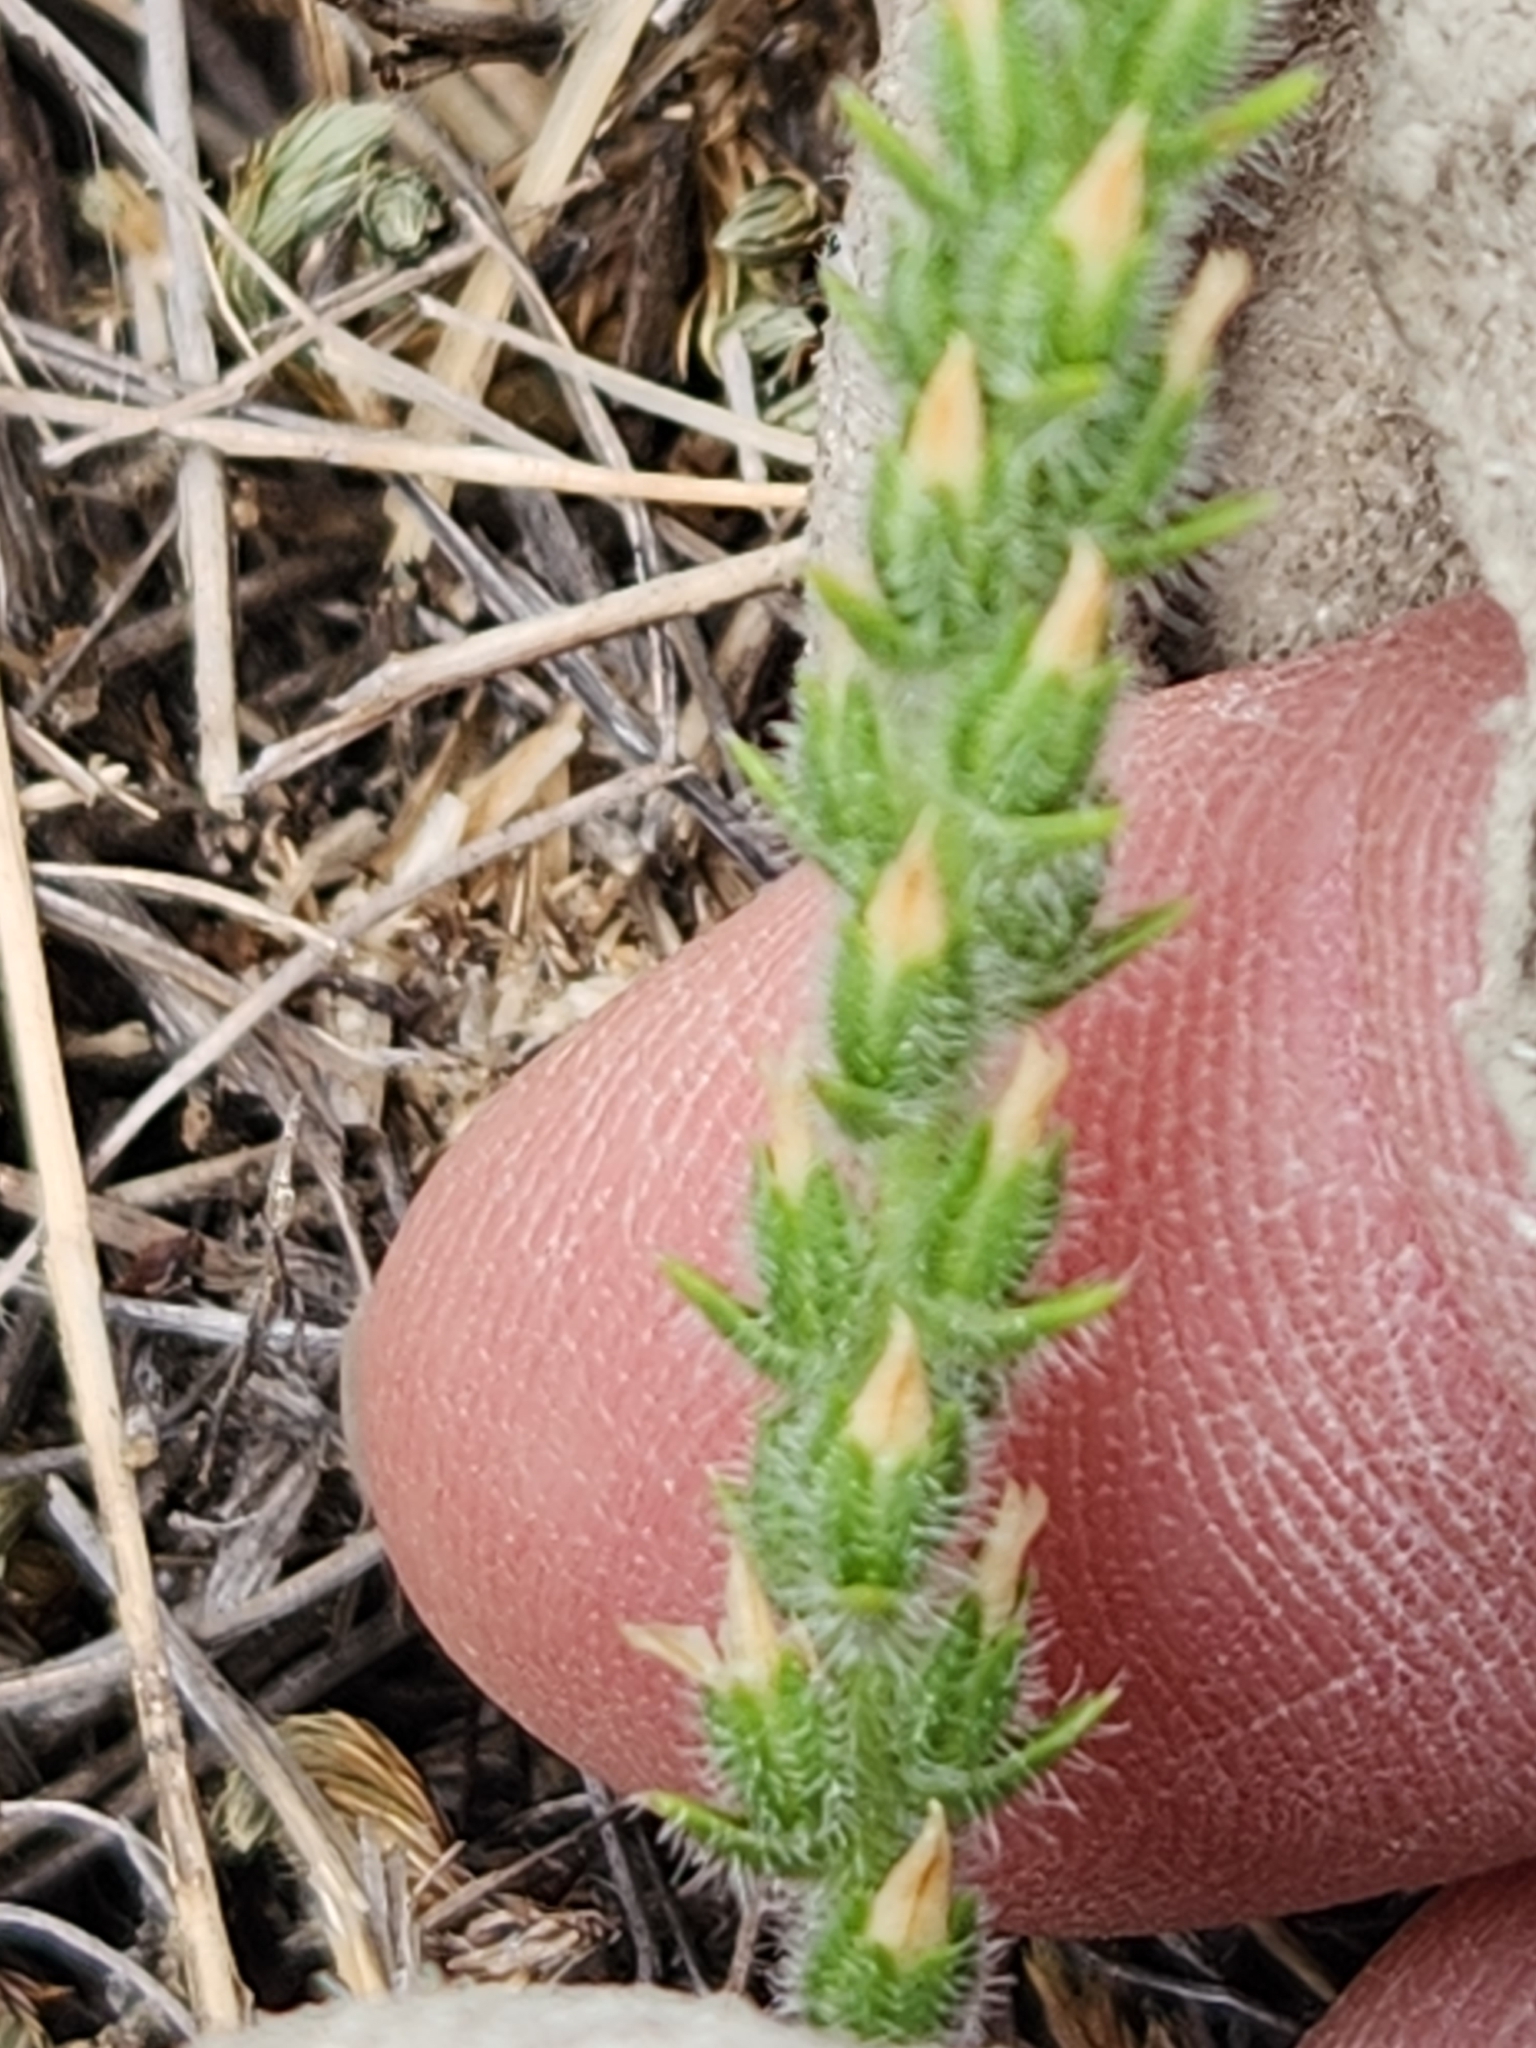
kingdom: Plantae
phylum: Tracheophyta
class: Magnoliopsida
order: Lamiales
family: Plantaginaceae
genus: Plantago
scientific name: Plantago rhodosperma
